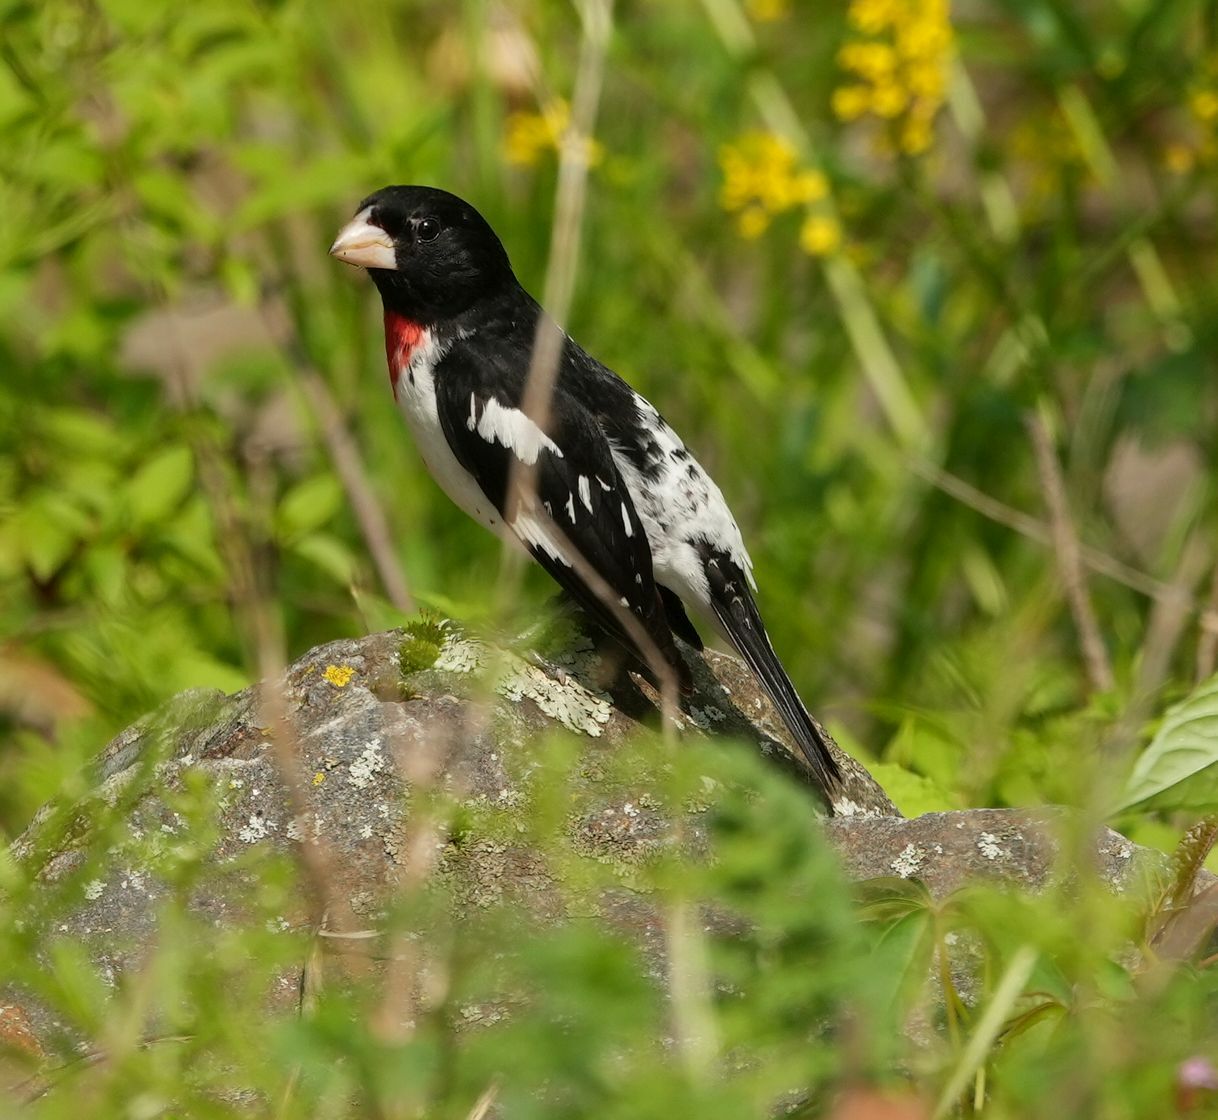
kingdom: Animalia
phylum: Chordata
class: Aves
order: Passeriformes
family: Cardinalidae
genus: Pheucticus
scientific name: Pheucticus ludovicianus
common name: Rose-breasted grosbeak
